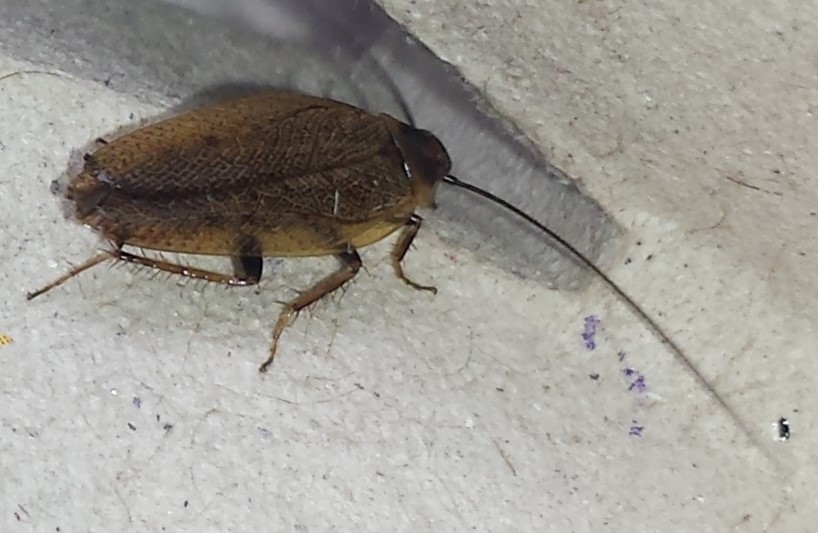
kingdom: Animalia
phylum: Arthropoda
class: Insecta
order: Blattodea
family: Ectobiidae
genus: Ectobius
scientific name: Ectobius lapponicus
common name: Dusky cockroach
